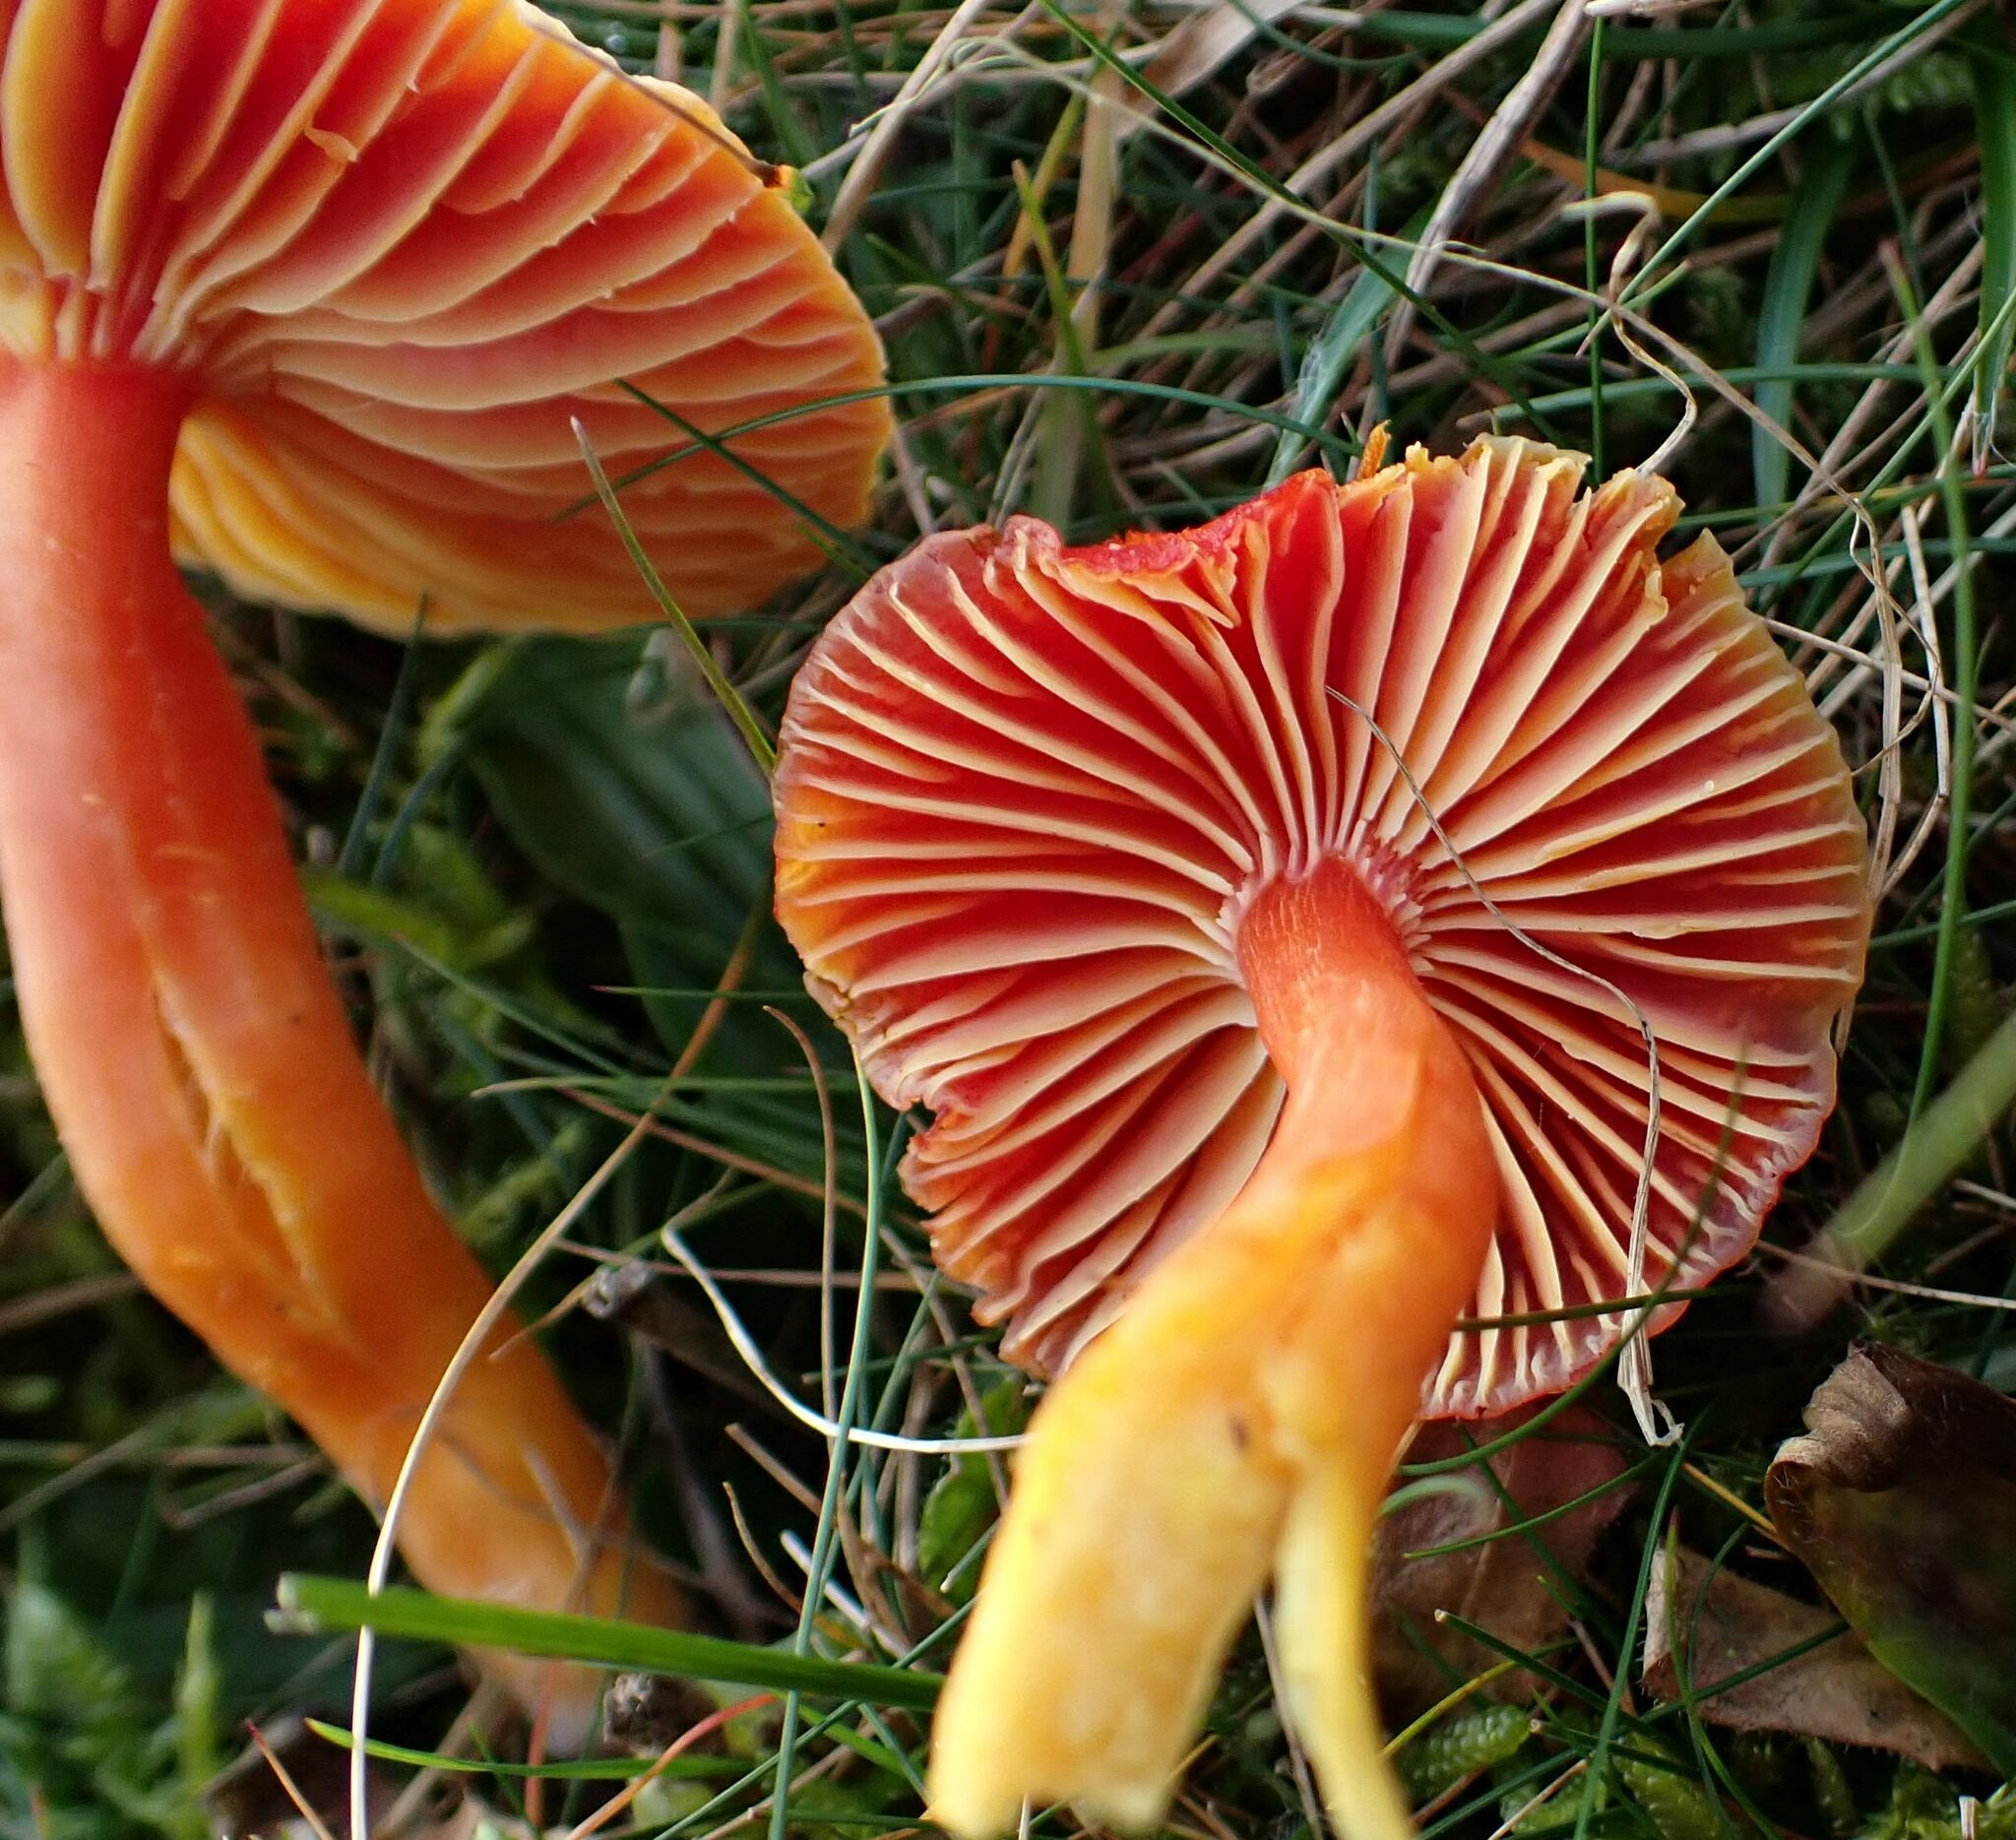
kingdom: Fungi
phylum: Basidiomycota
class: Agaricomycetes
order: Agaricales
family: Hygrophoraceae
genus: Hygrocybe
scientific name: Hygrocybe coccinea
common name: Scarlet hood
